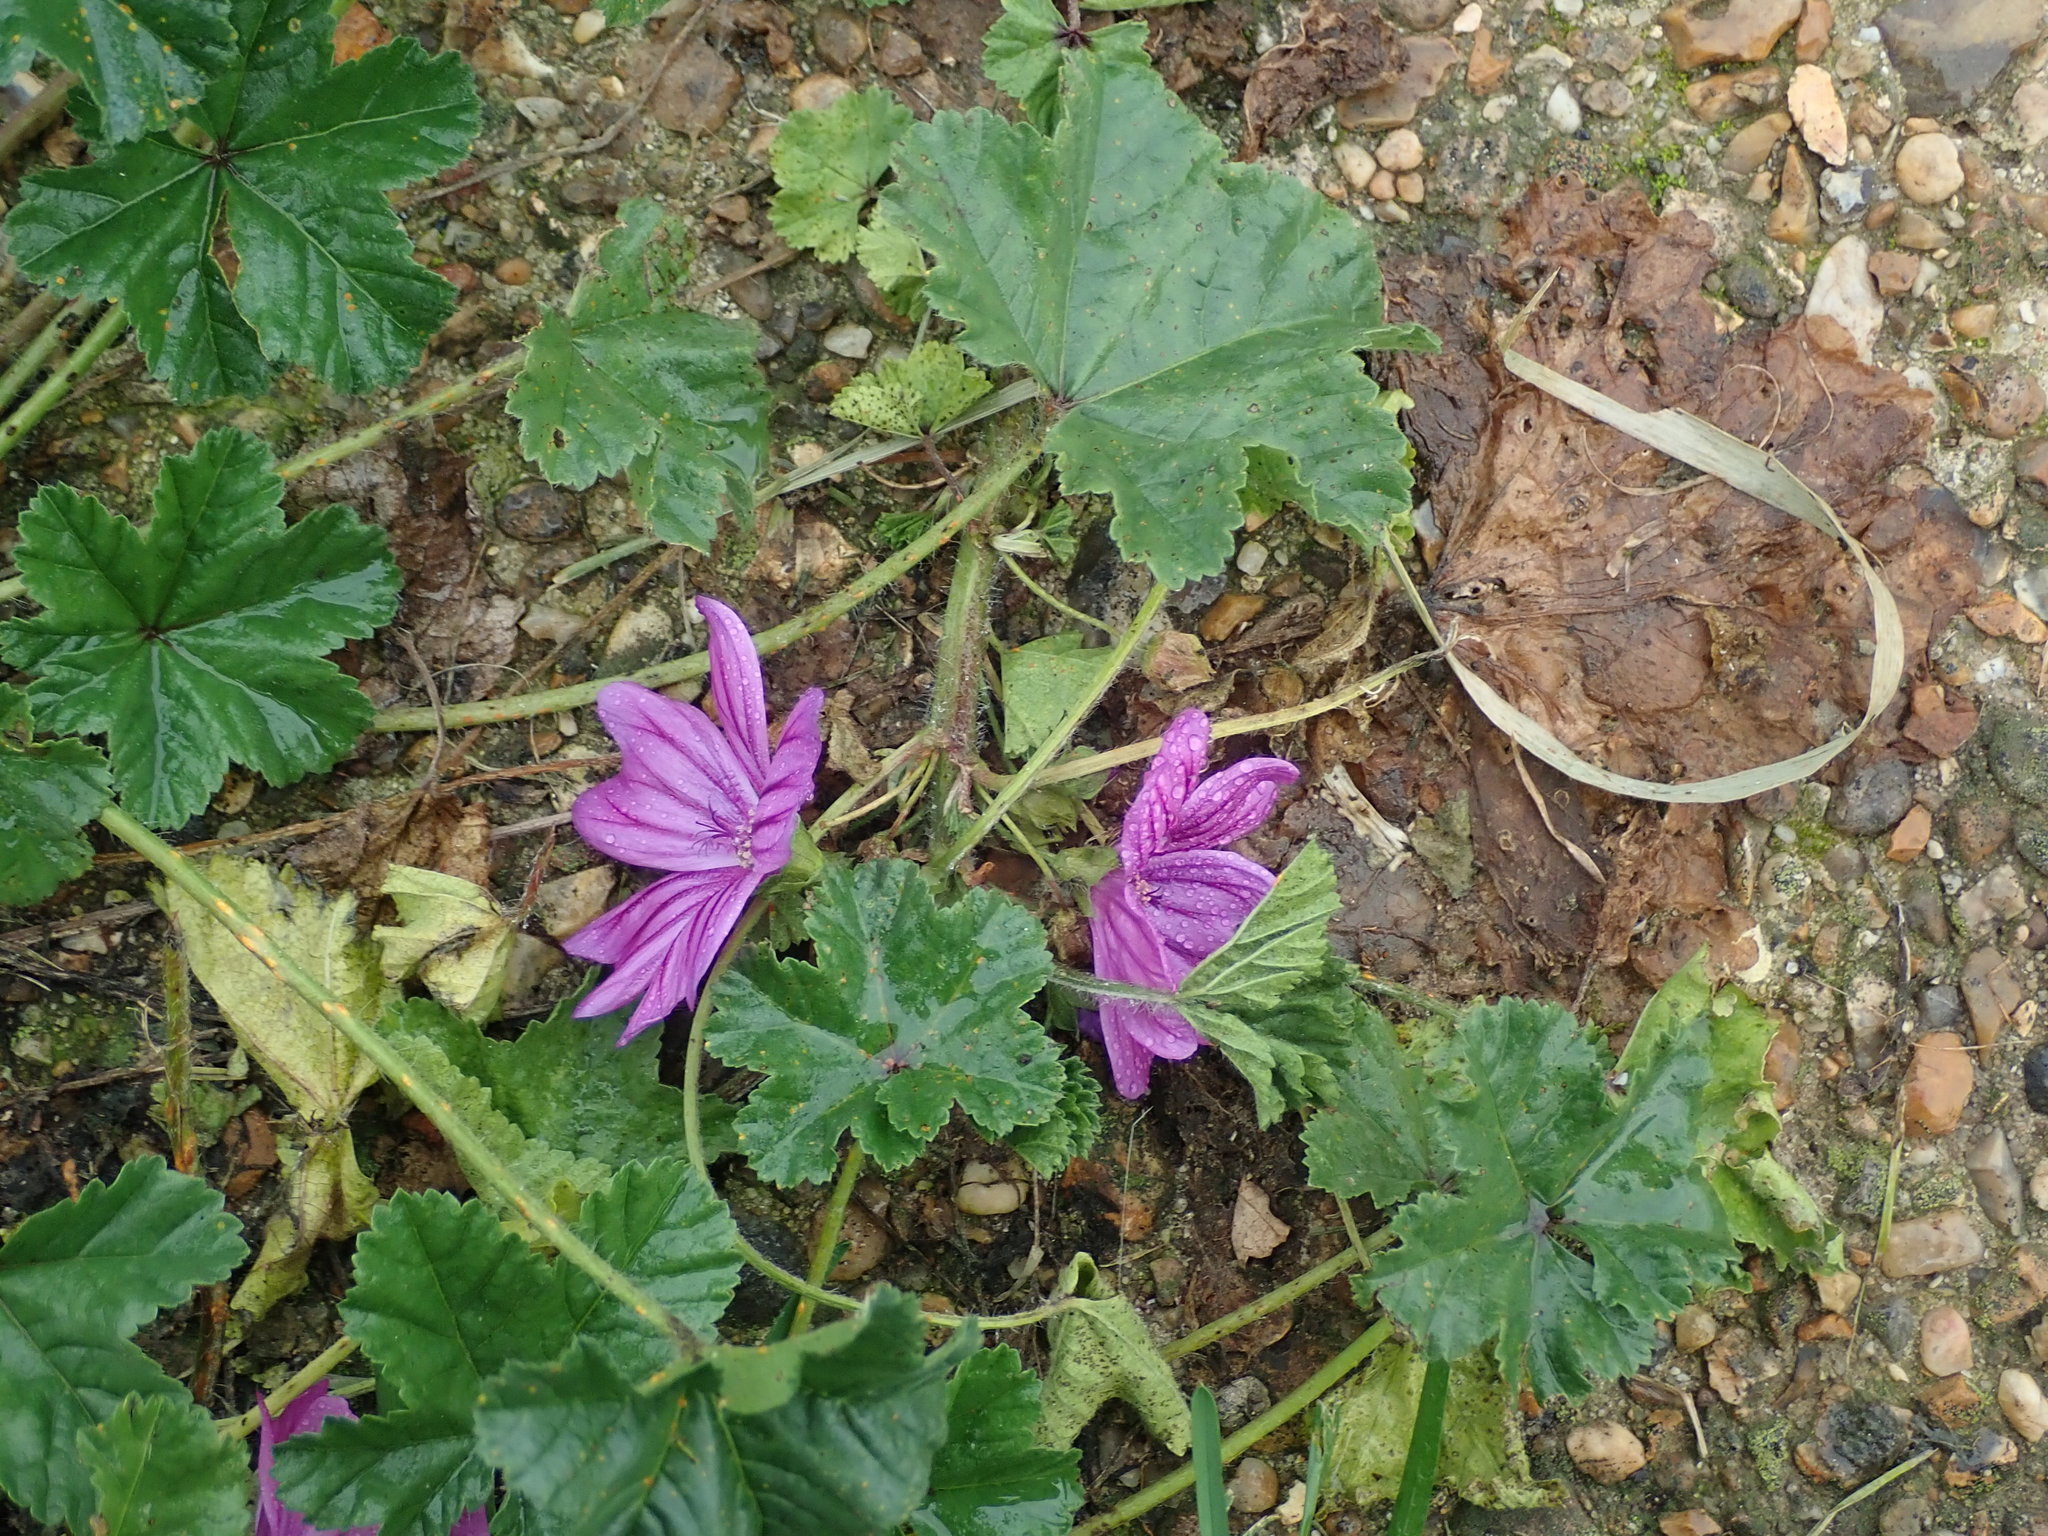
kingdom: Plantae
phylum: Tracheophyta
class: Magnoliopsida
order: Malvales
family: Malvaceae
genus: Malva
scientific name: Malva sylvestris
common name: Common mallow
